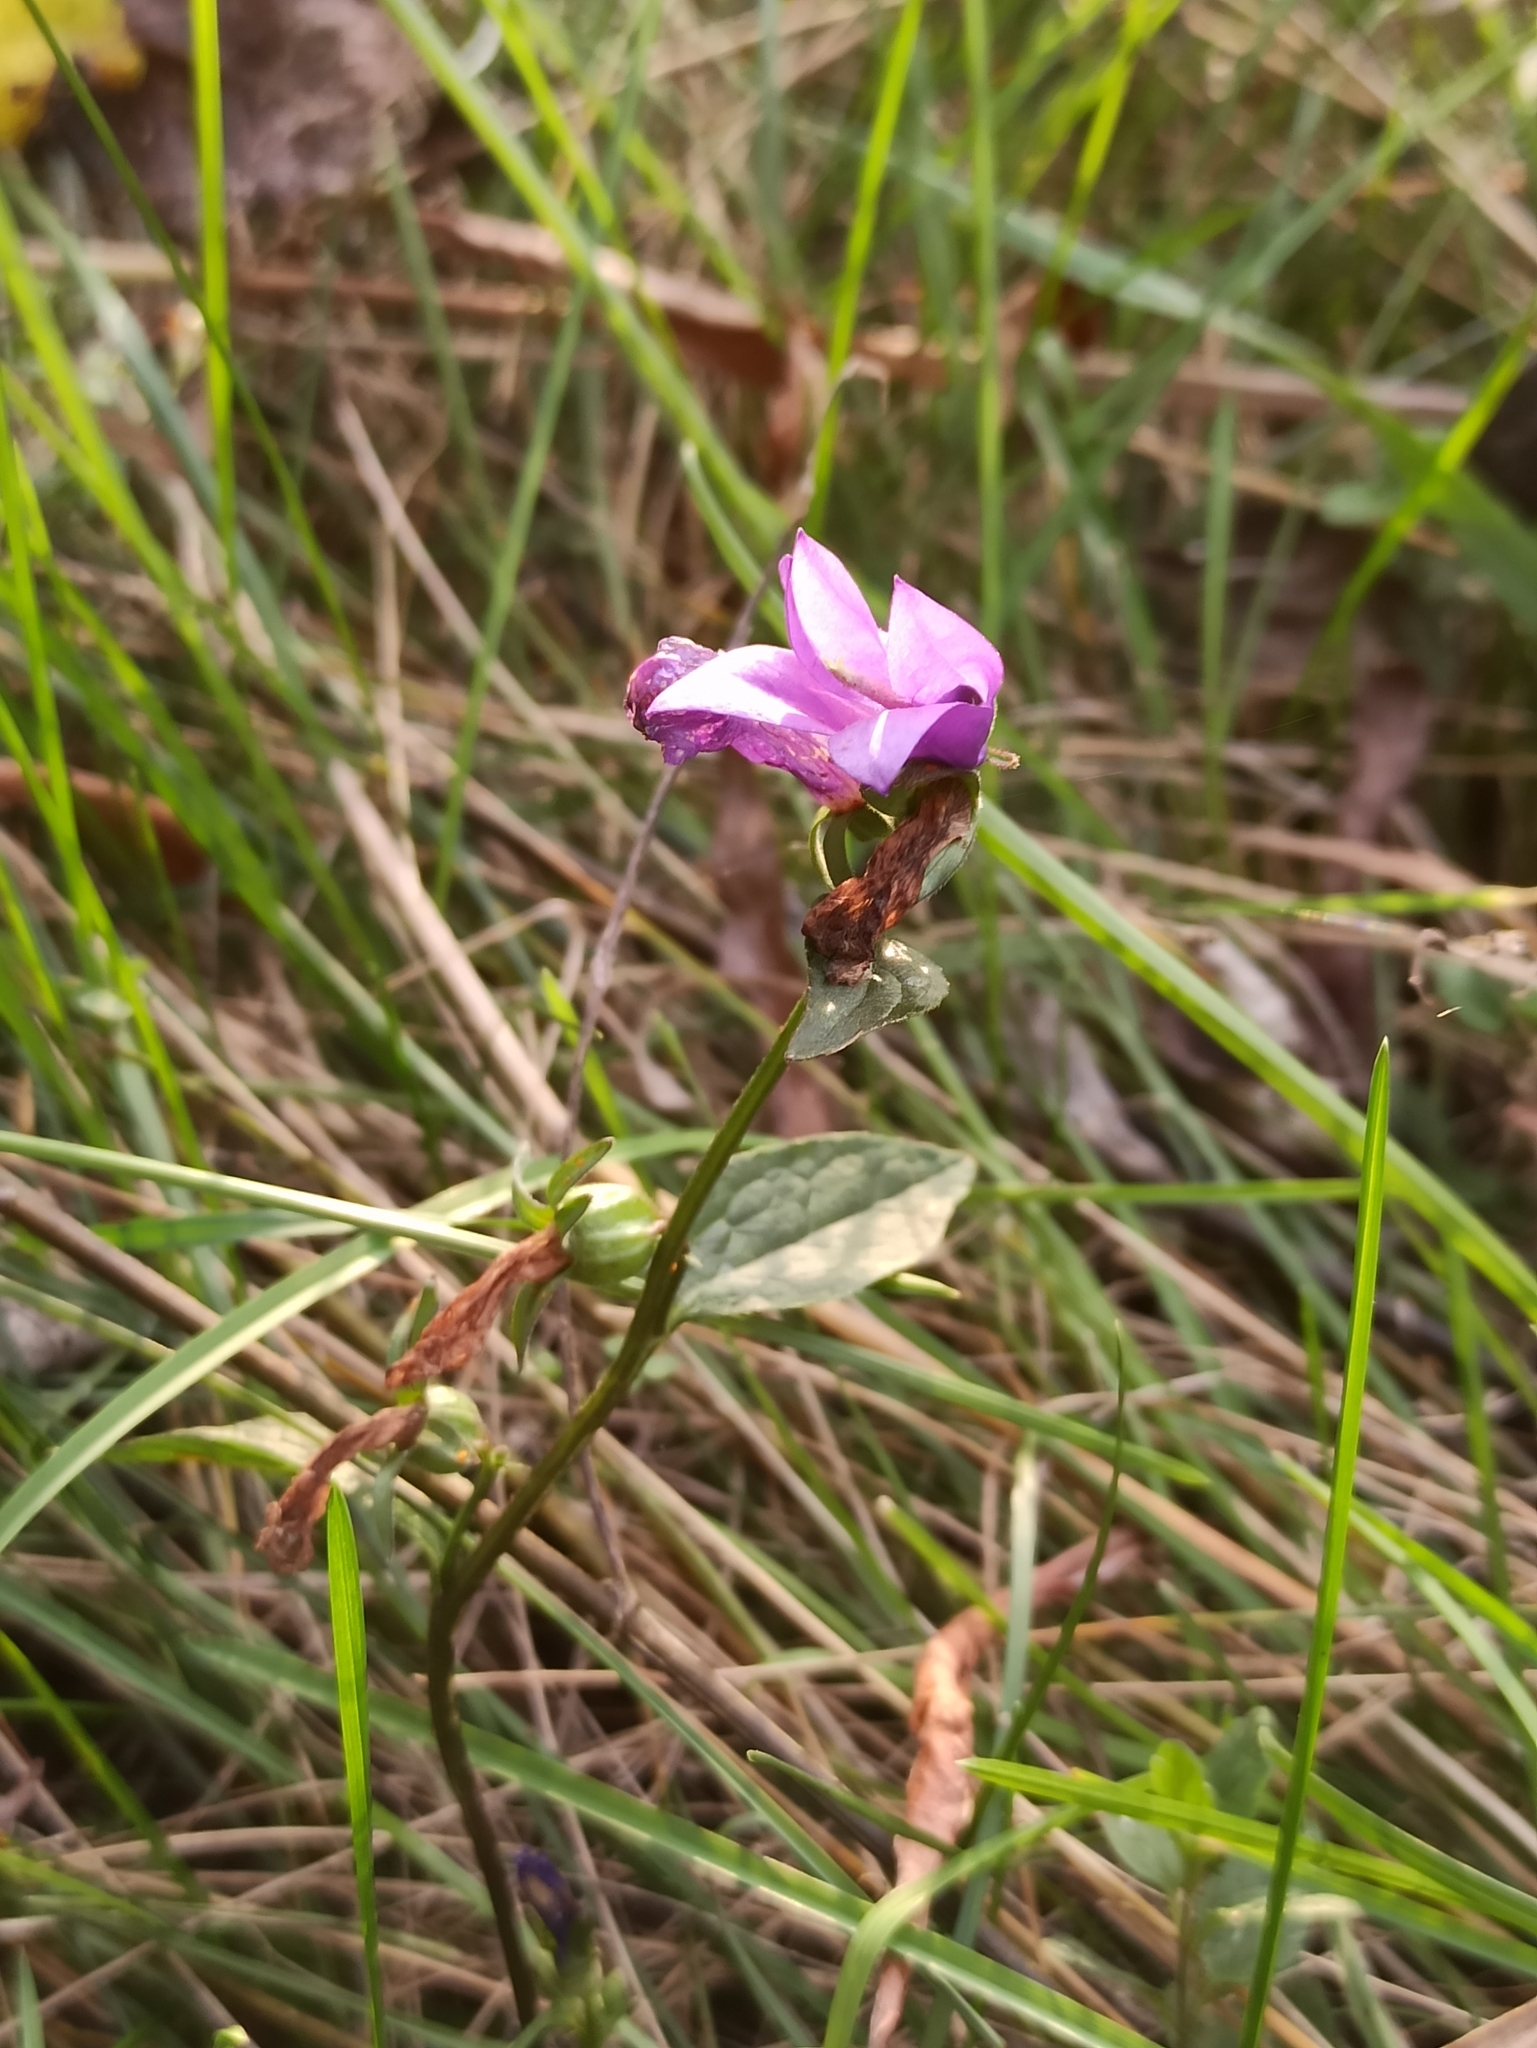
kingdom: Plantae
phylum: Tracheophyta
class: Magnoliopsida
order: Asterales
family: Campanulaceae
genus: Campanula
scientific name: Campanula rapunculoides
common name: Creeping bellflower
